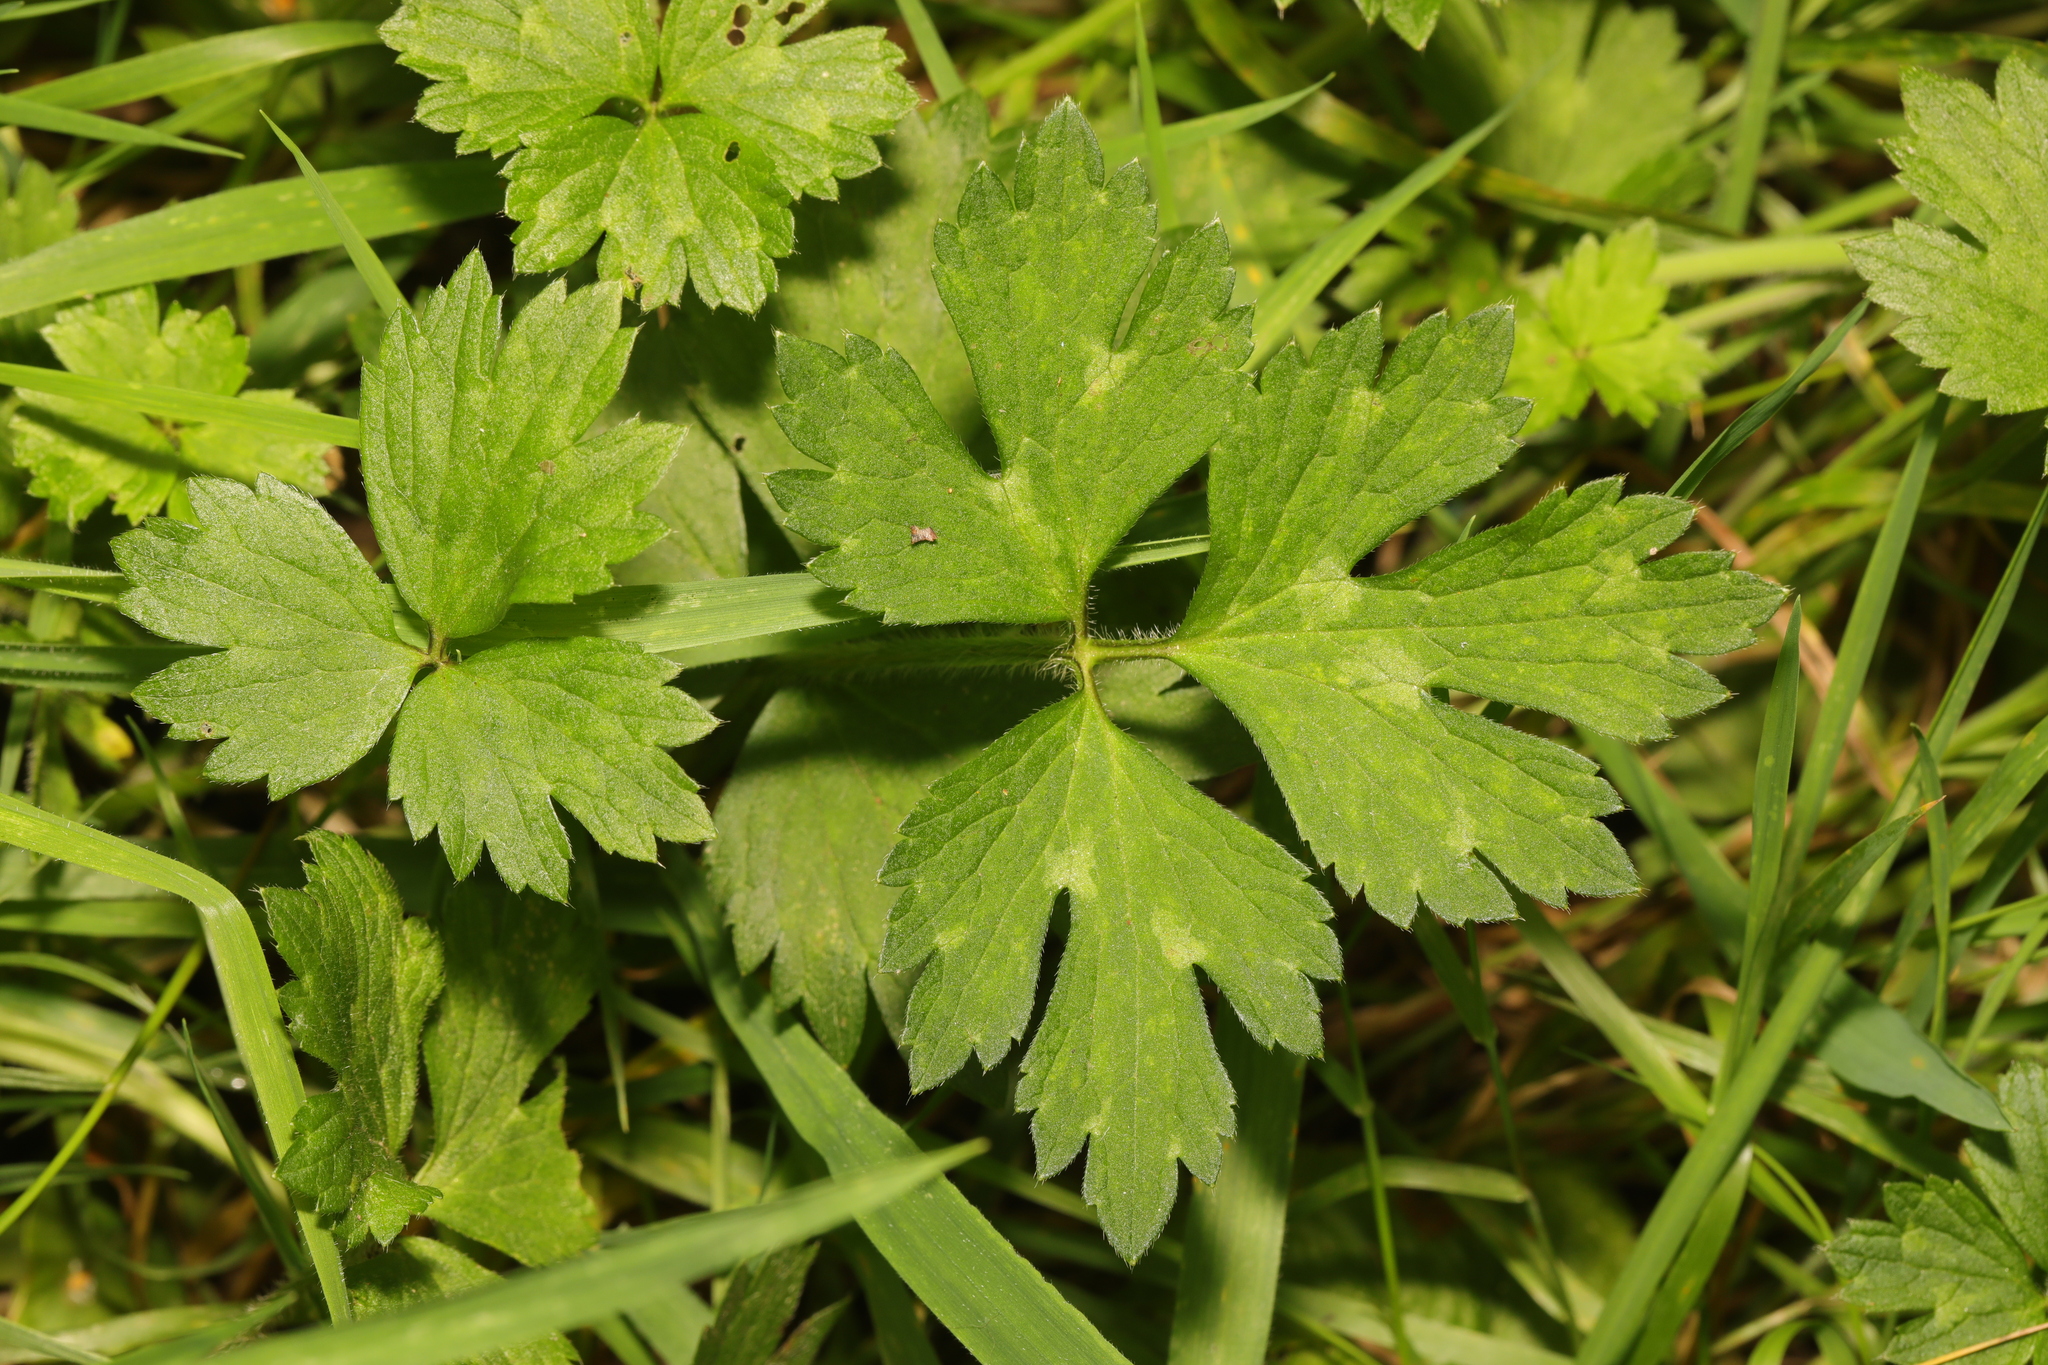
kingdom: Plantae
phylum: Tracheophyta
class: Magnoliopsida
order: Ranunculales
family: Ranunculaceae
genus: Ranunculus
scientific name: Ranunculus repens
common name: Creeping buttercup
